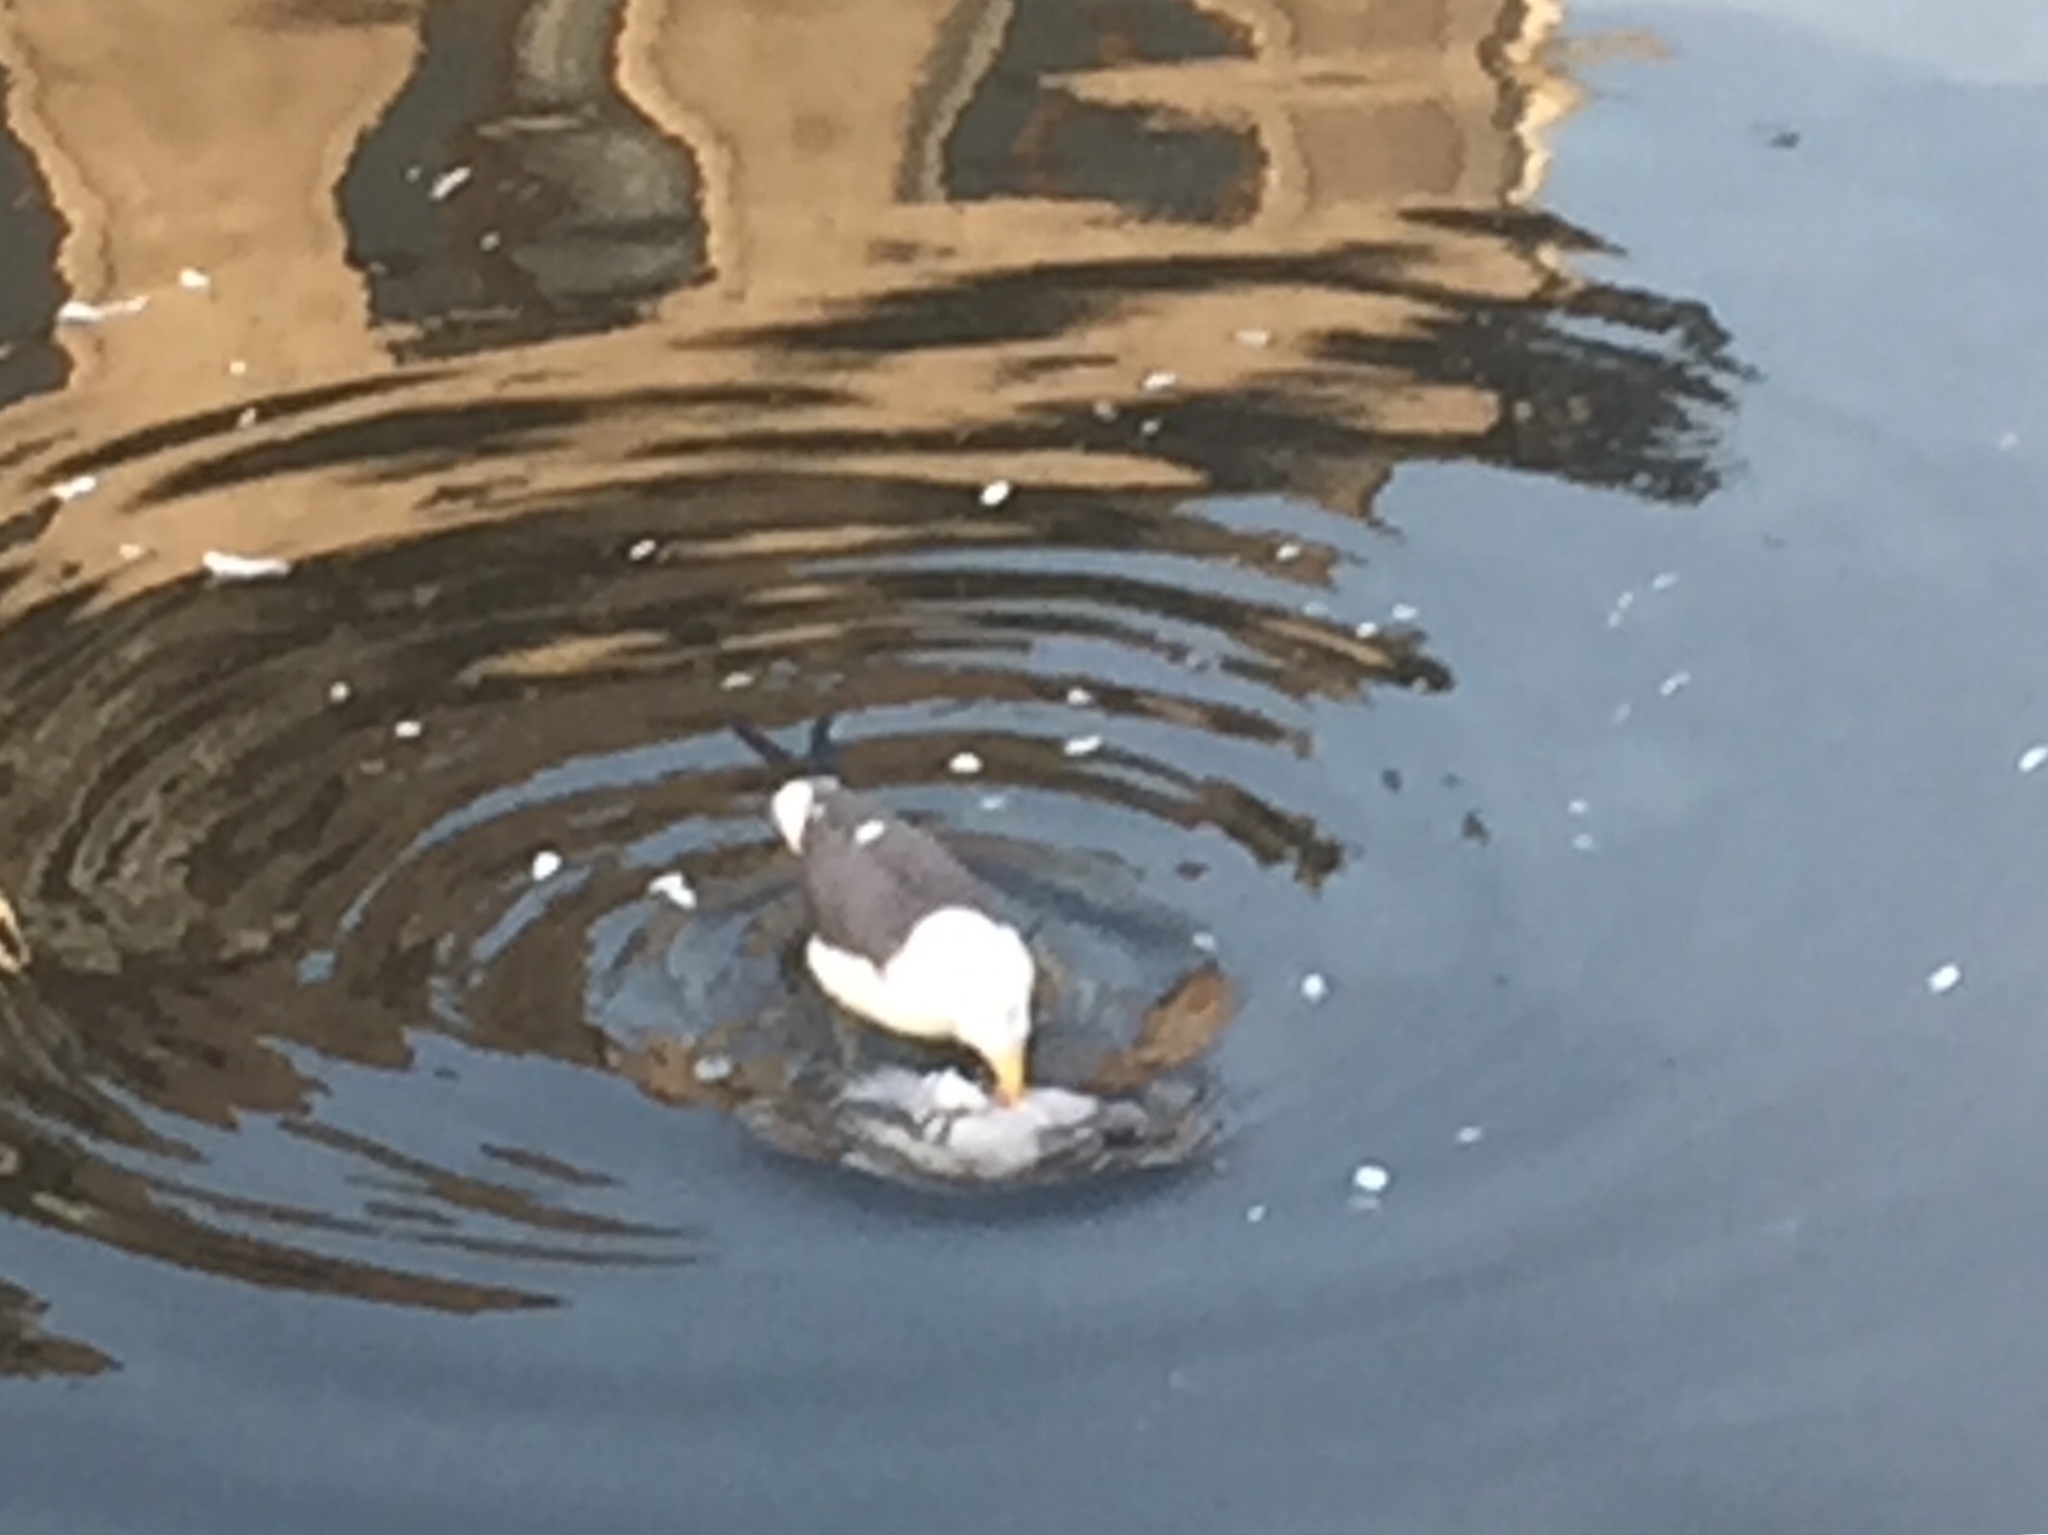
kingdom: Animalia
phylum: Chordata
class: Aves
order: Charadriiformes
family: Laridae
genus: Larus
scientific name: Larus fuscus
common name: Lesser black-backed gull
